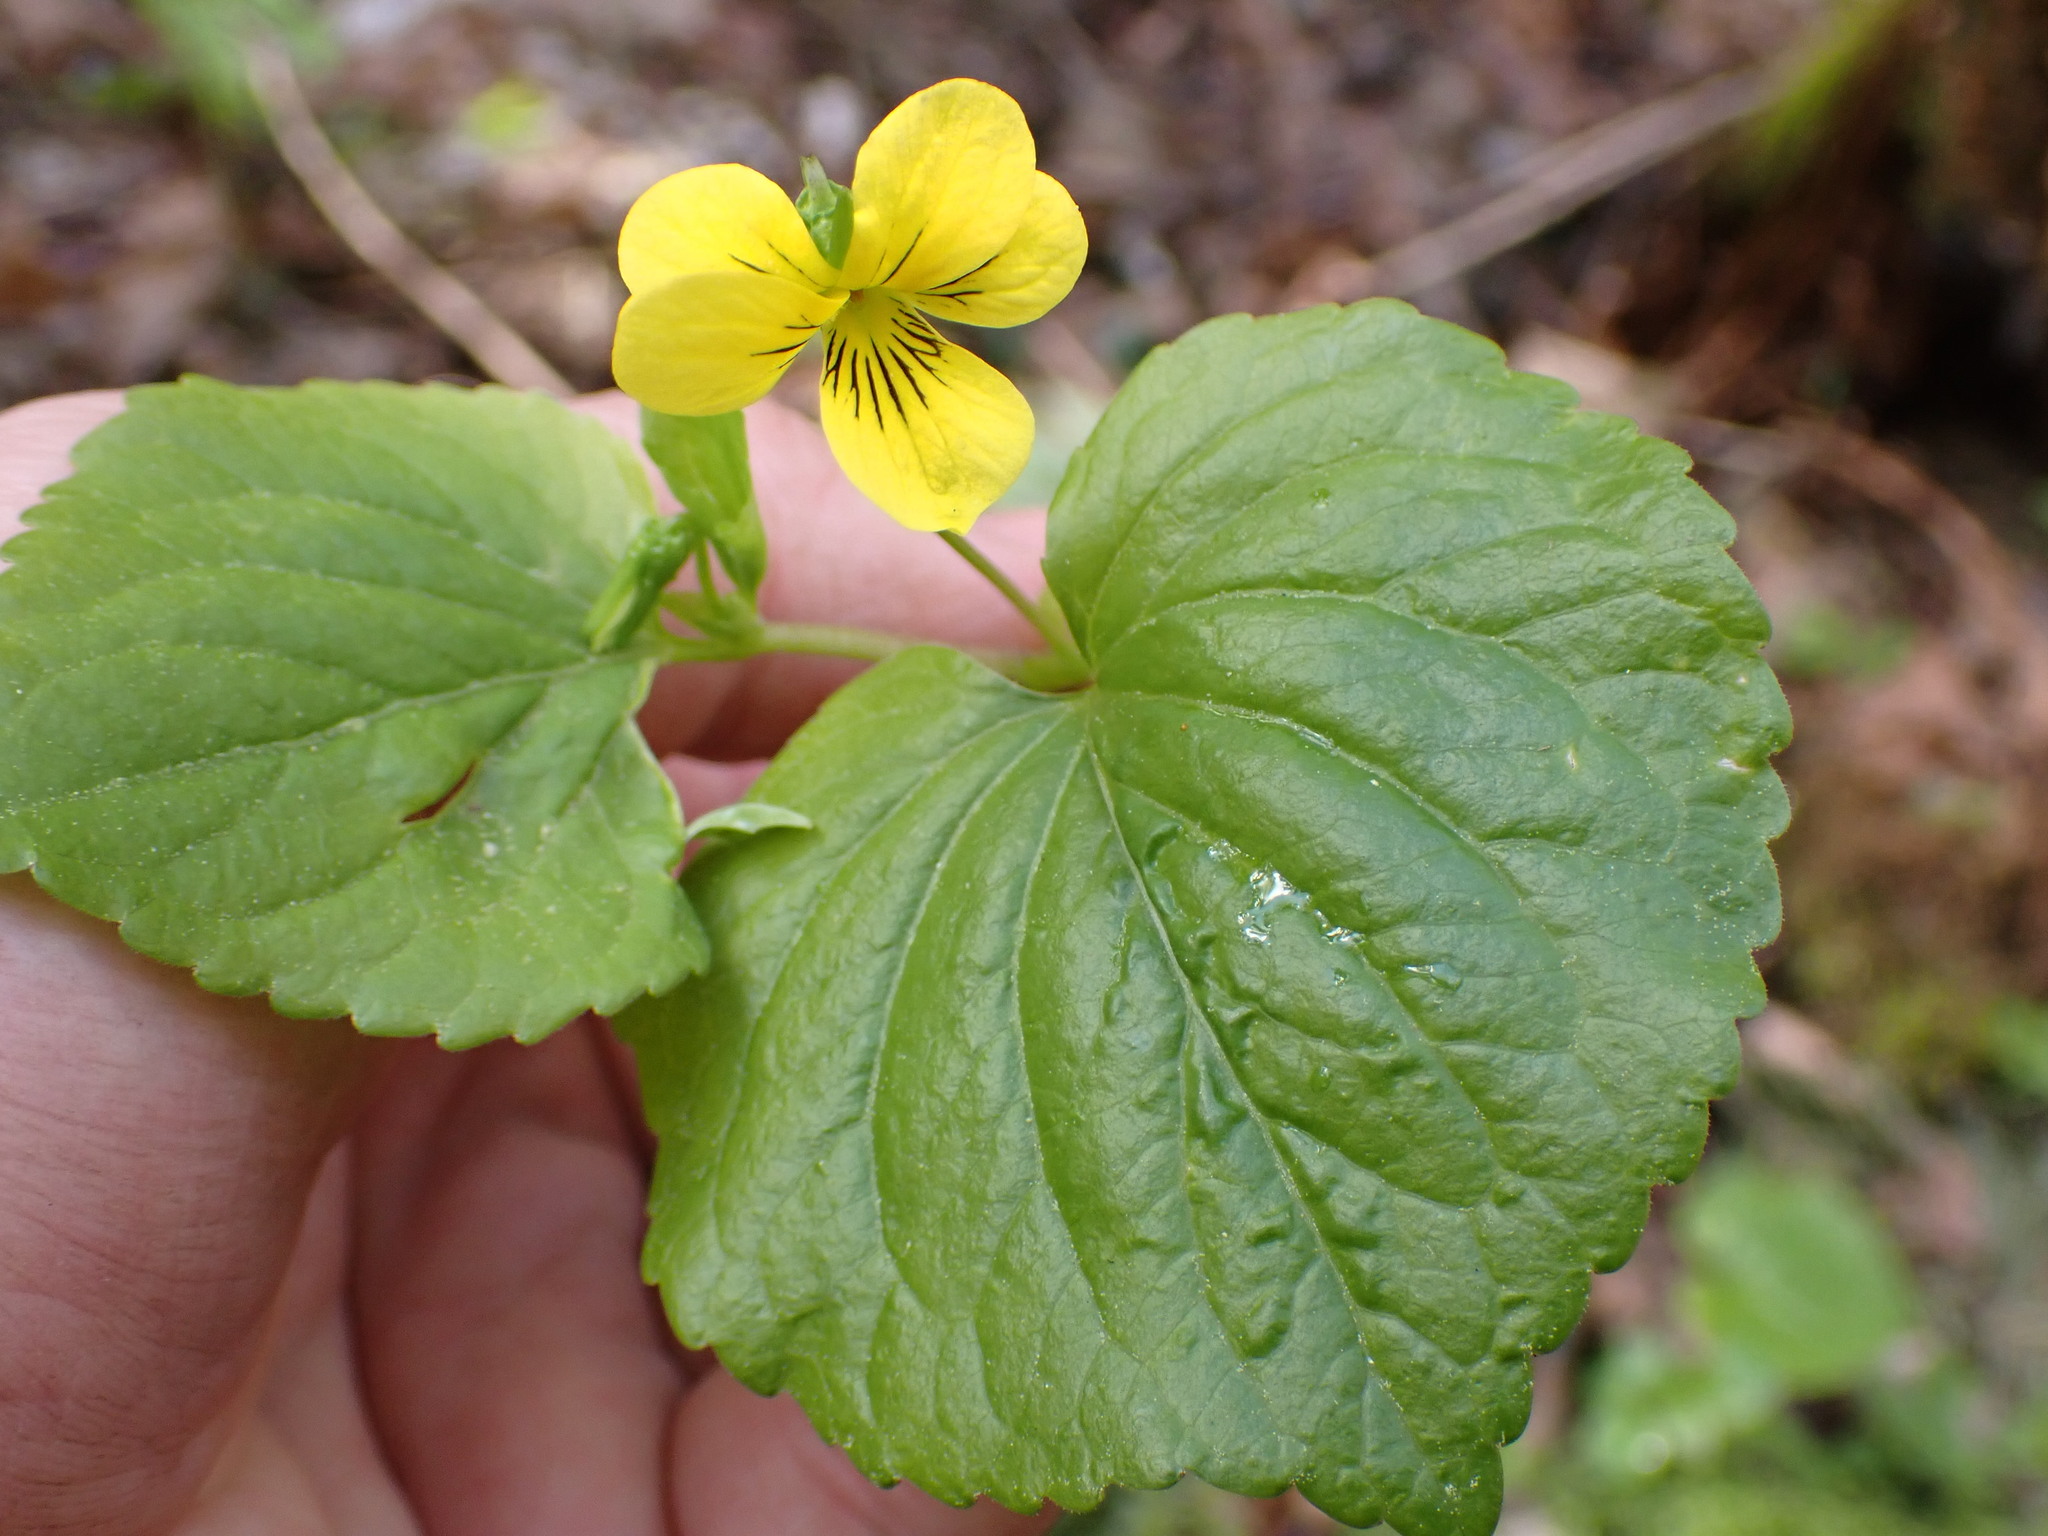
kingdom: Plantae
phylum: Tracheophyta
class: Magnoliopsida
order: Malpighiales
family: Violaceae
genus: Viola
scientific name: Viola glabella
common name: Stream violet
